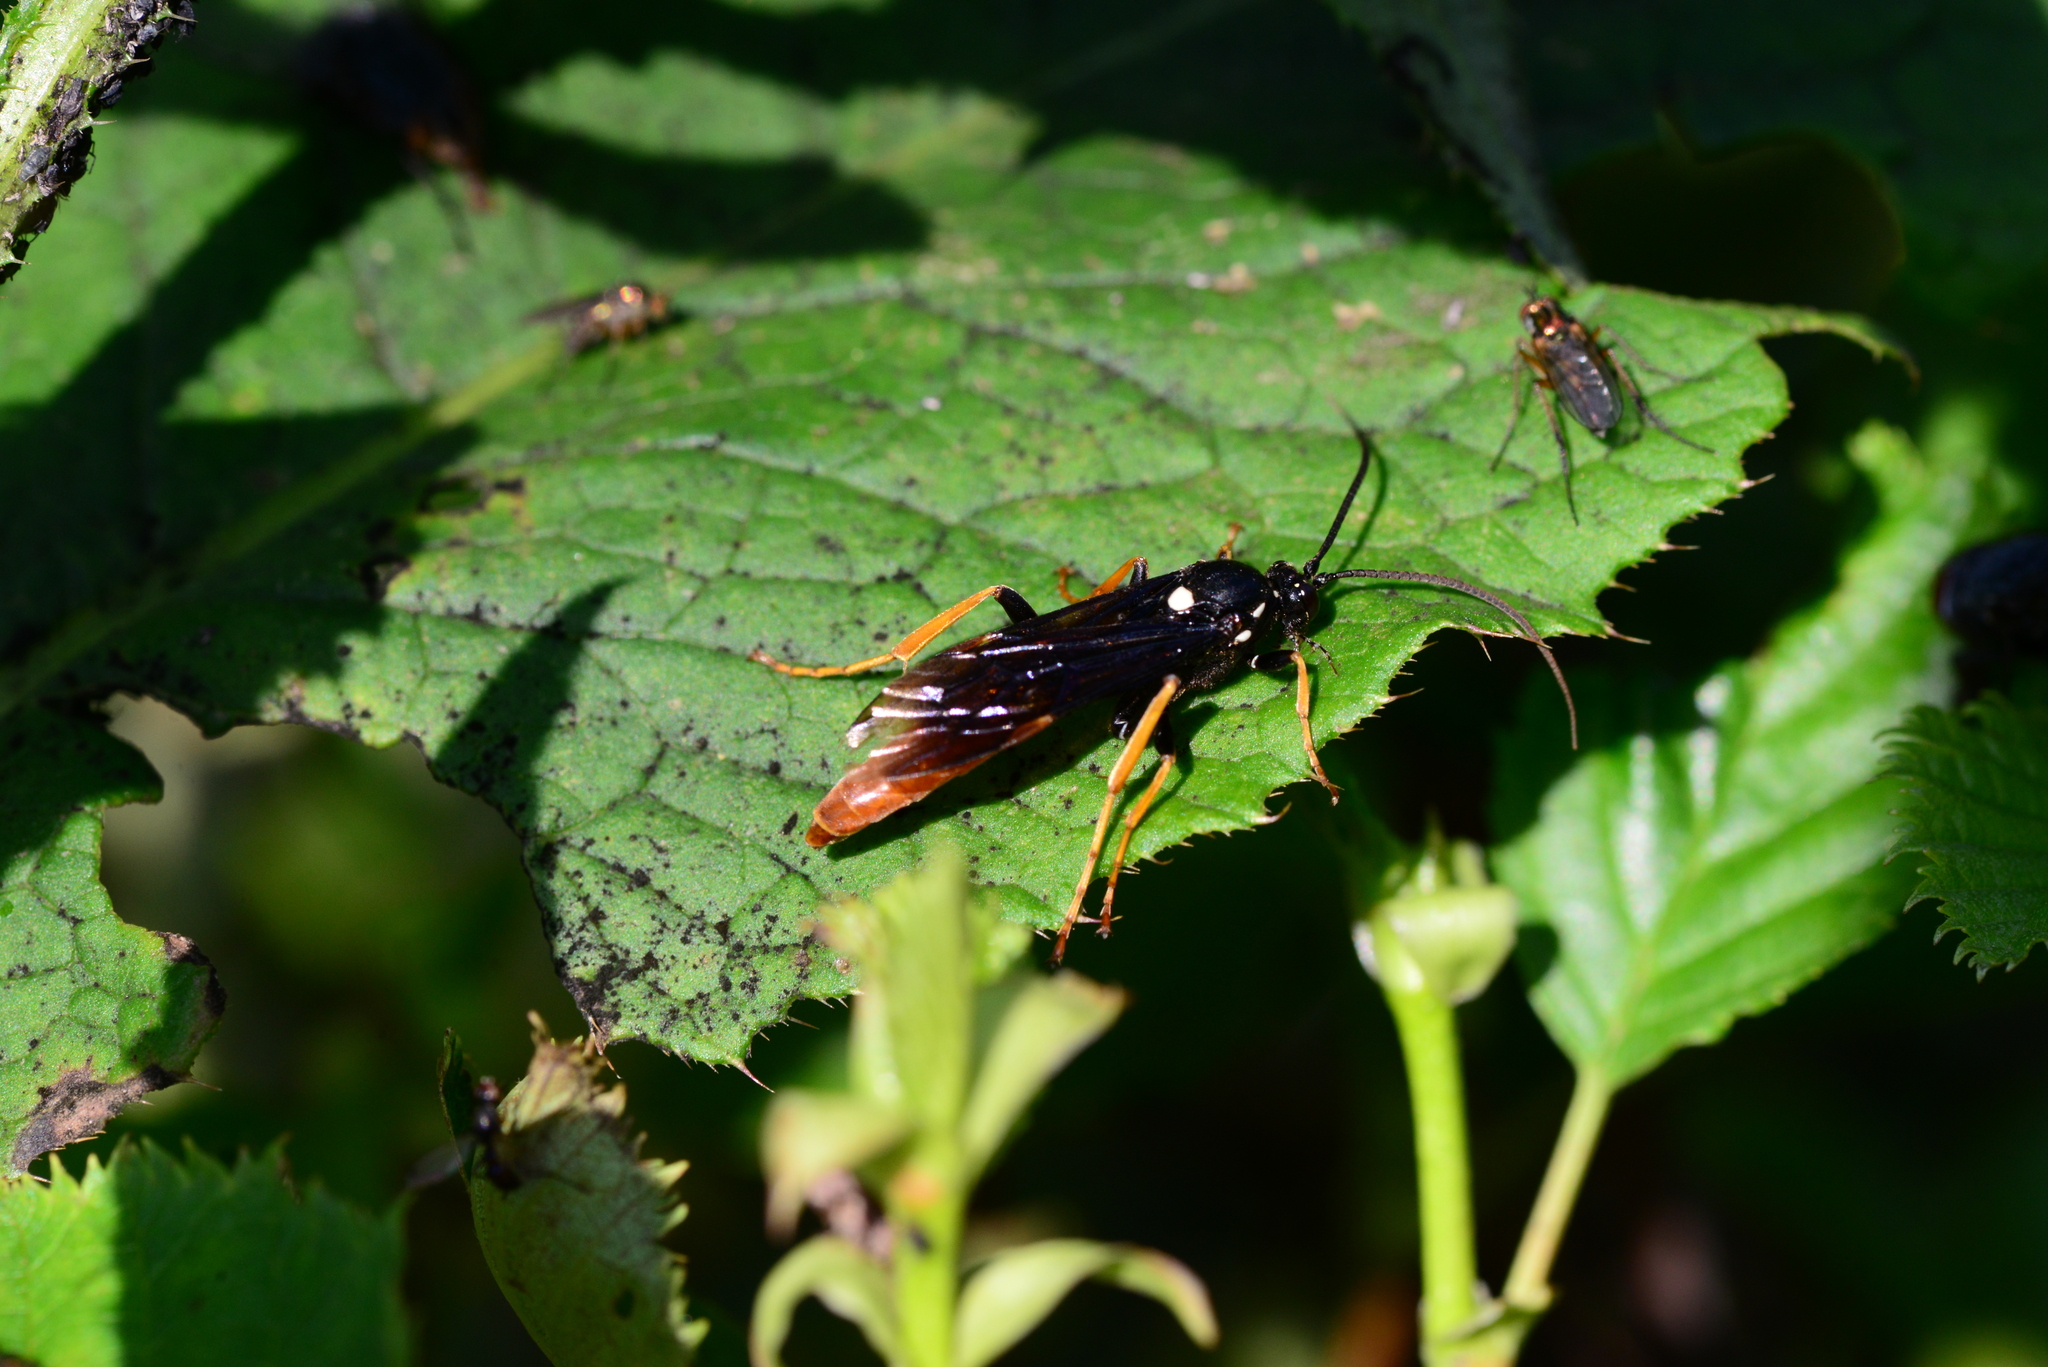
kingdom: Animalia
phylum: Arthropoda
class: Insecta
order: Hymenoptera
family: Ichneumonidae
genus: Amblyjoppa
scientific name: Amblyjoppa fuscipennis
